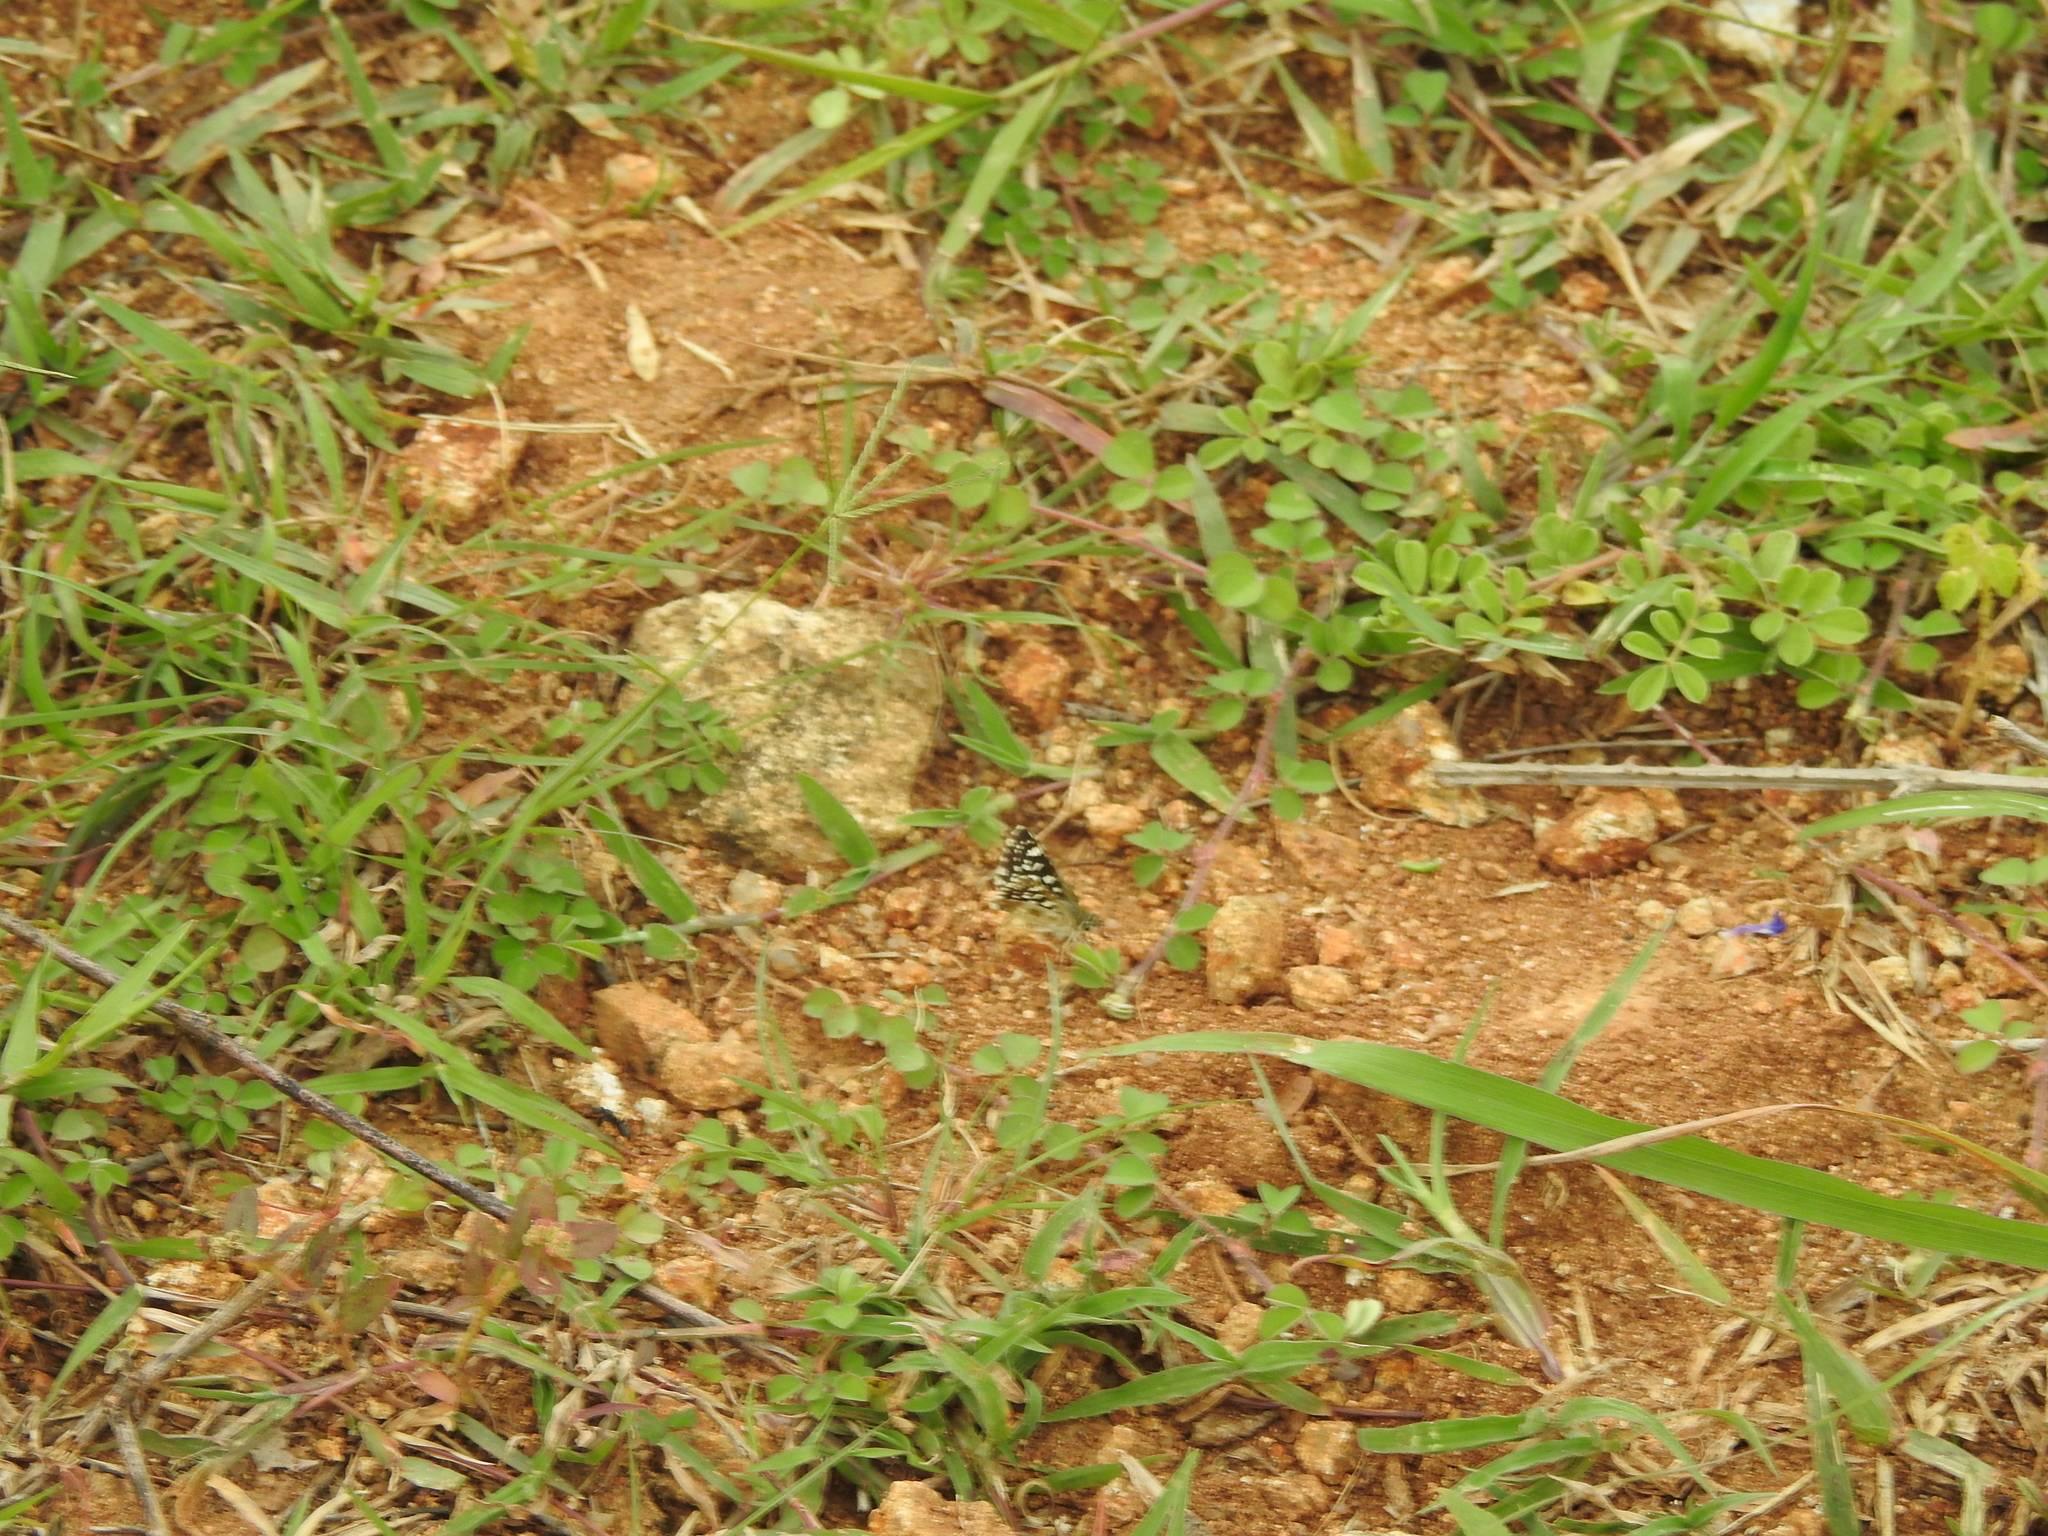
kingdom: Animalia
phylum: Arthropoda
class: Insecta
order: Lepidoptera
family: Hesperiidae
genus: Spialia
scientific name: Spialia galba
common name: Indian skipper
